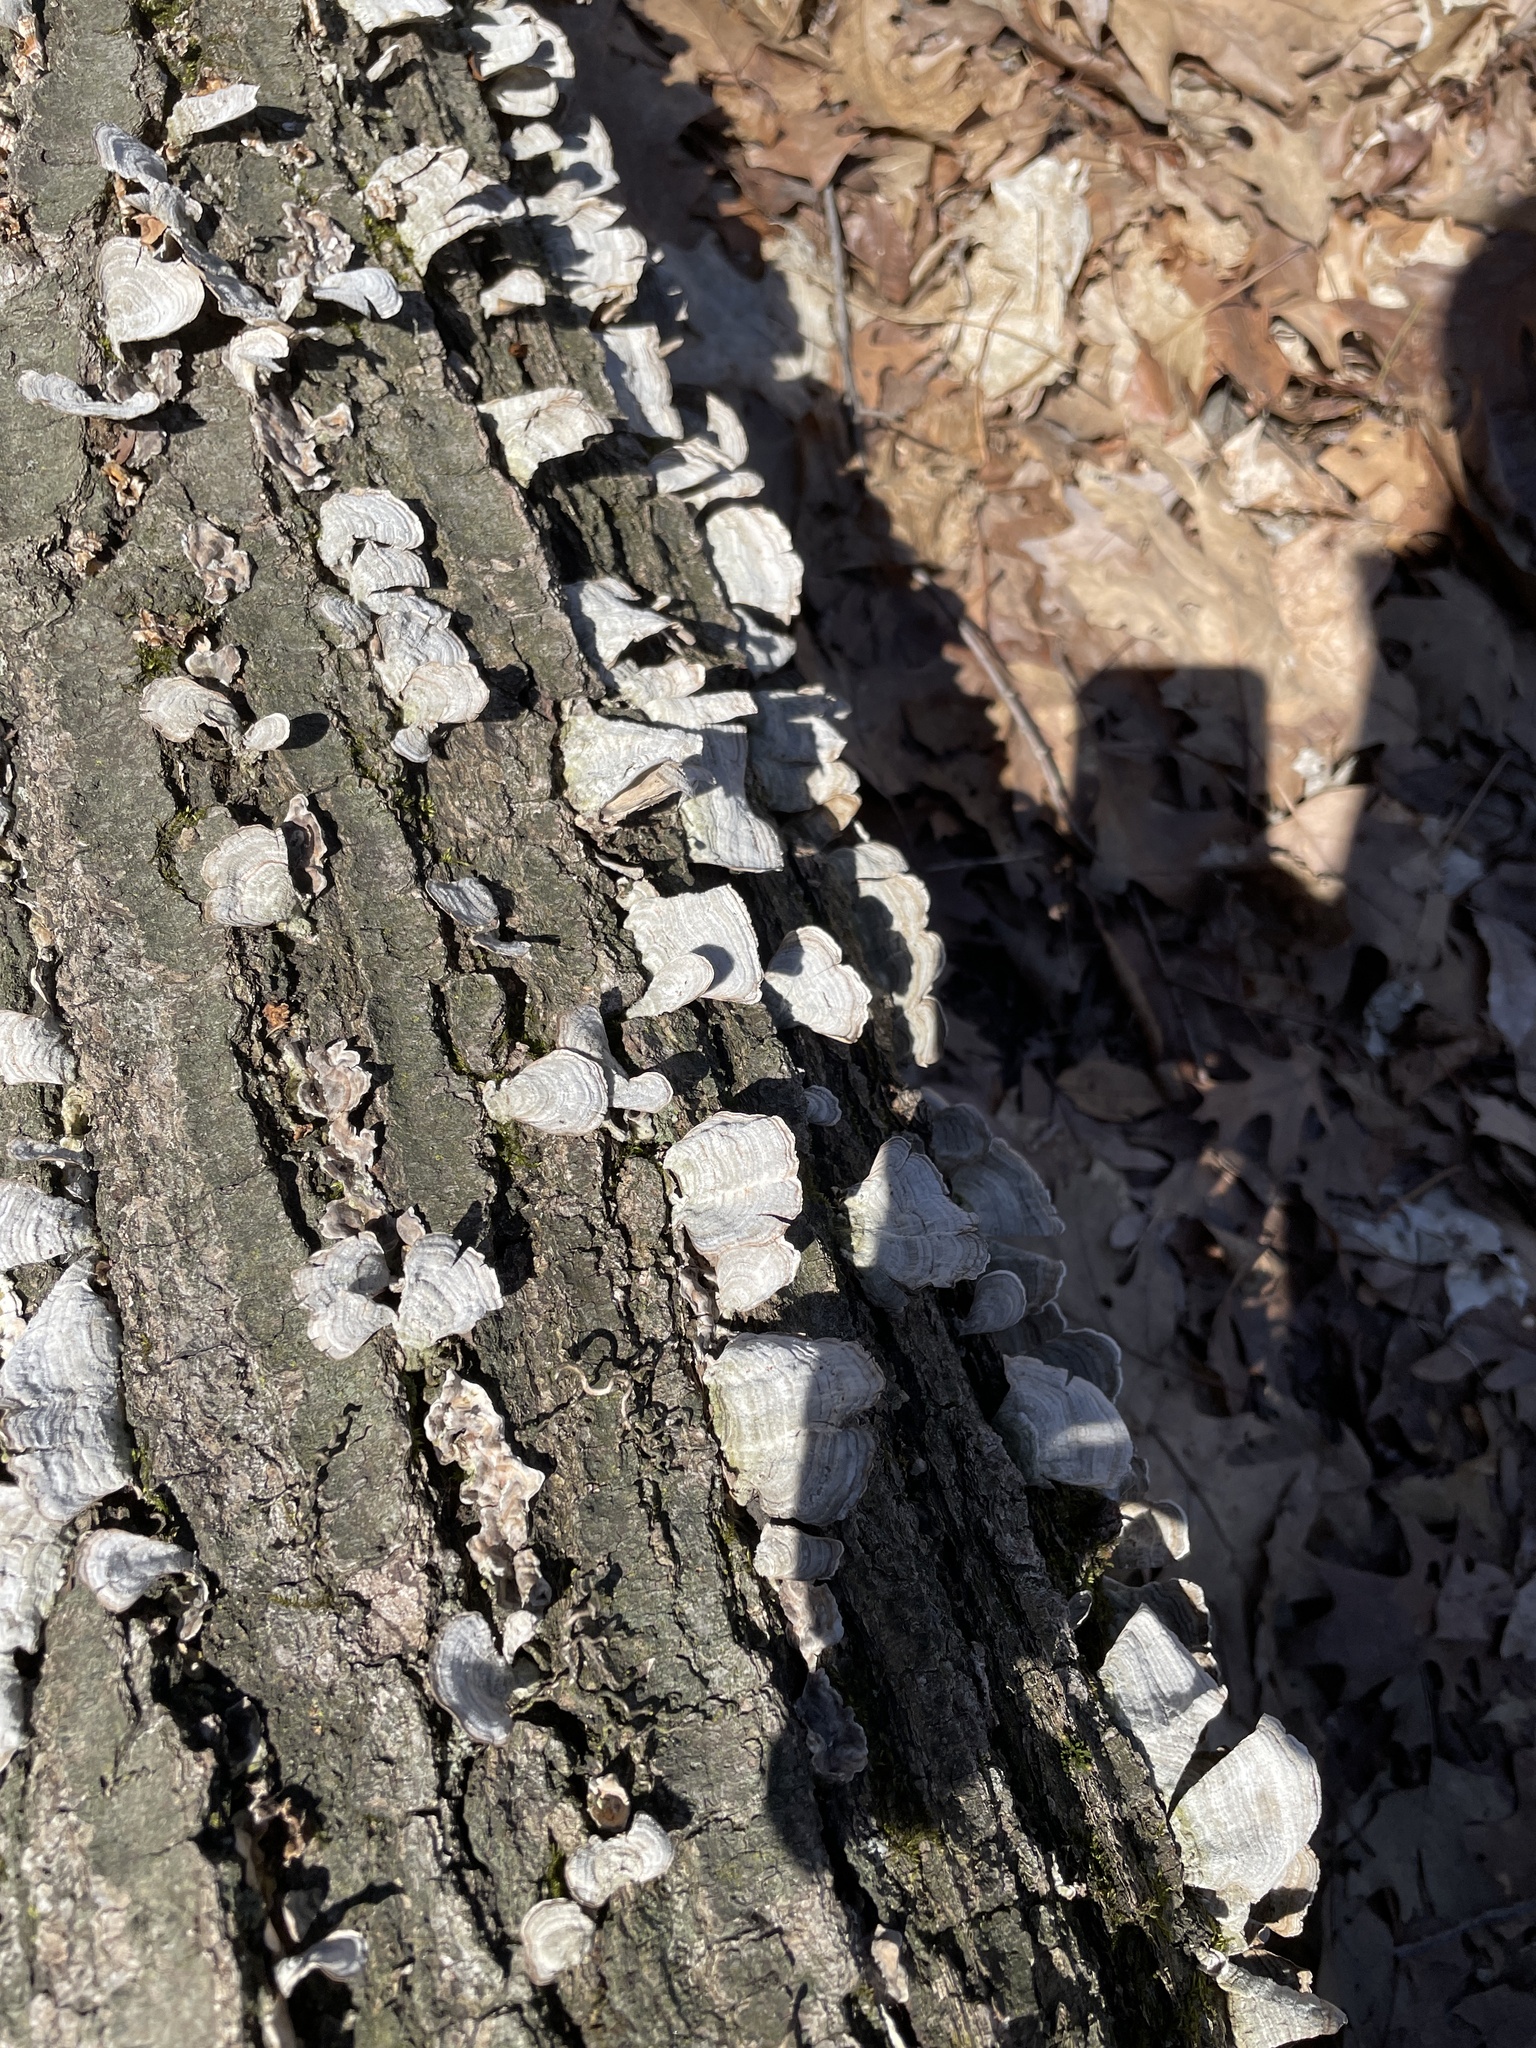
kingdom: Fungi
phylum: Basidiomycota
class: Agaricomycetes
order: Russulales
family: Stereaceae
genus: Stereum
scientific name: Stereum ostrea
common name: False turkeytail
